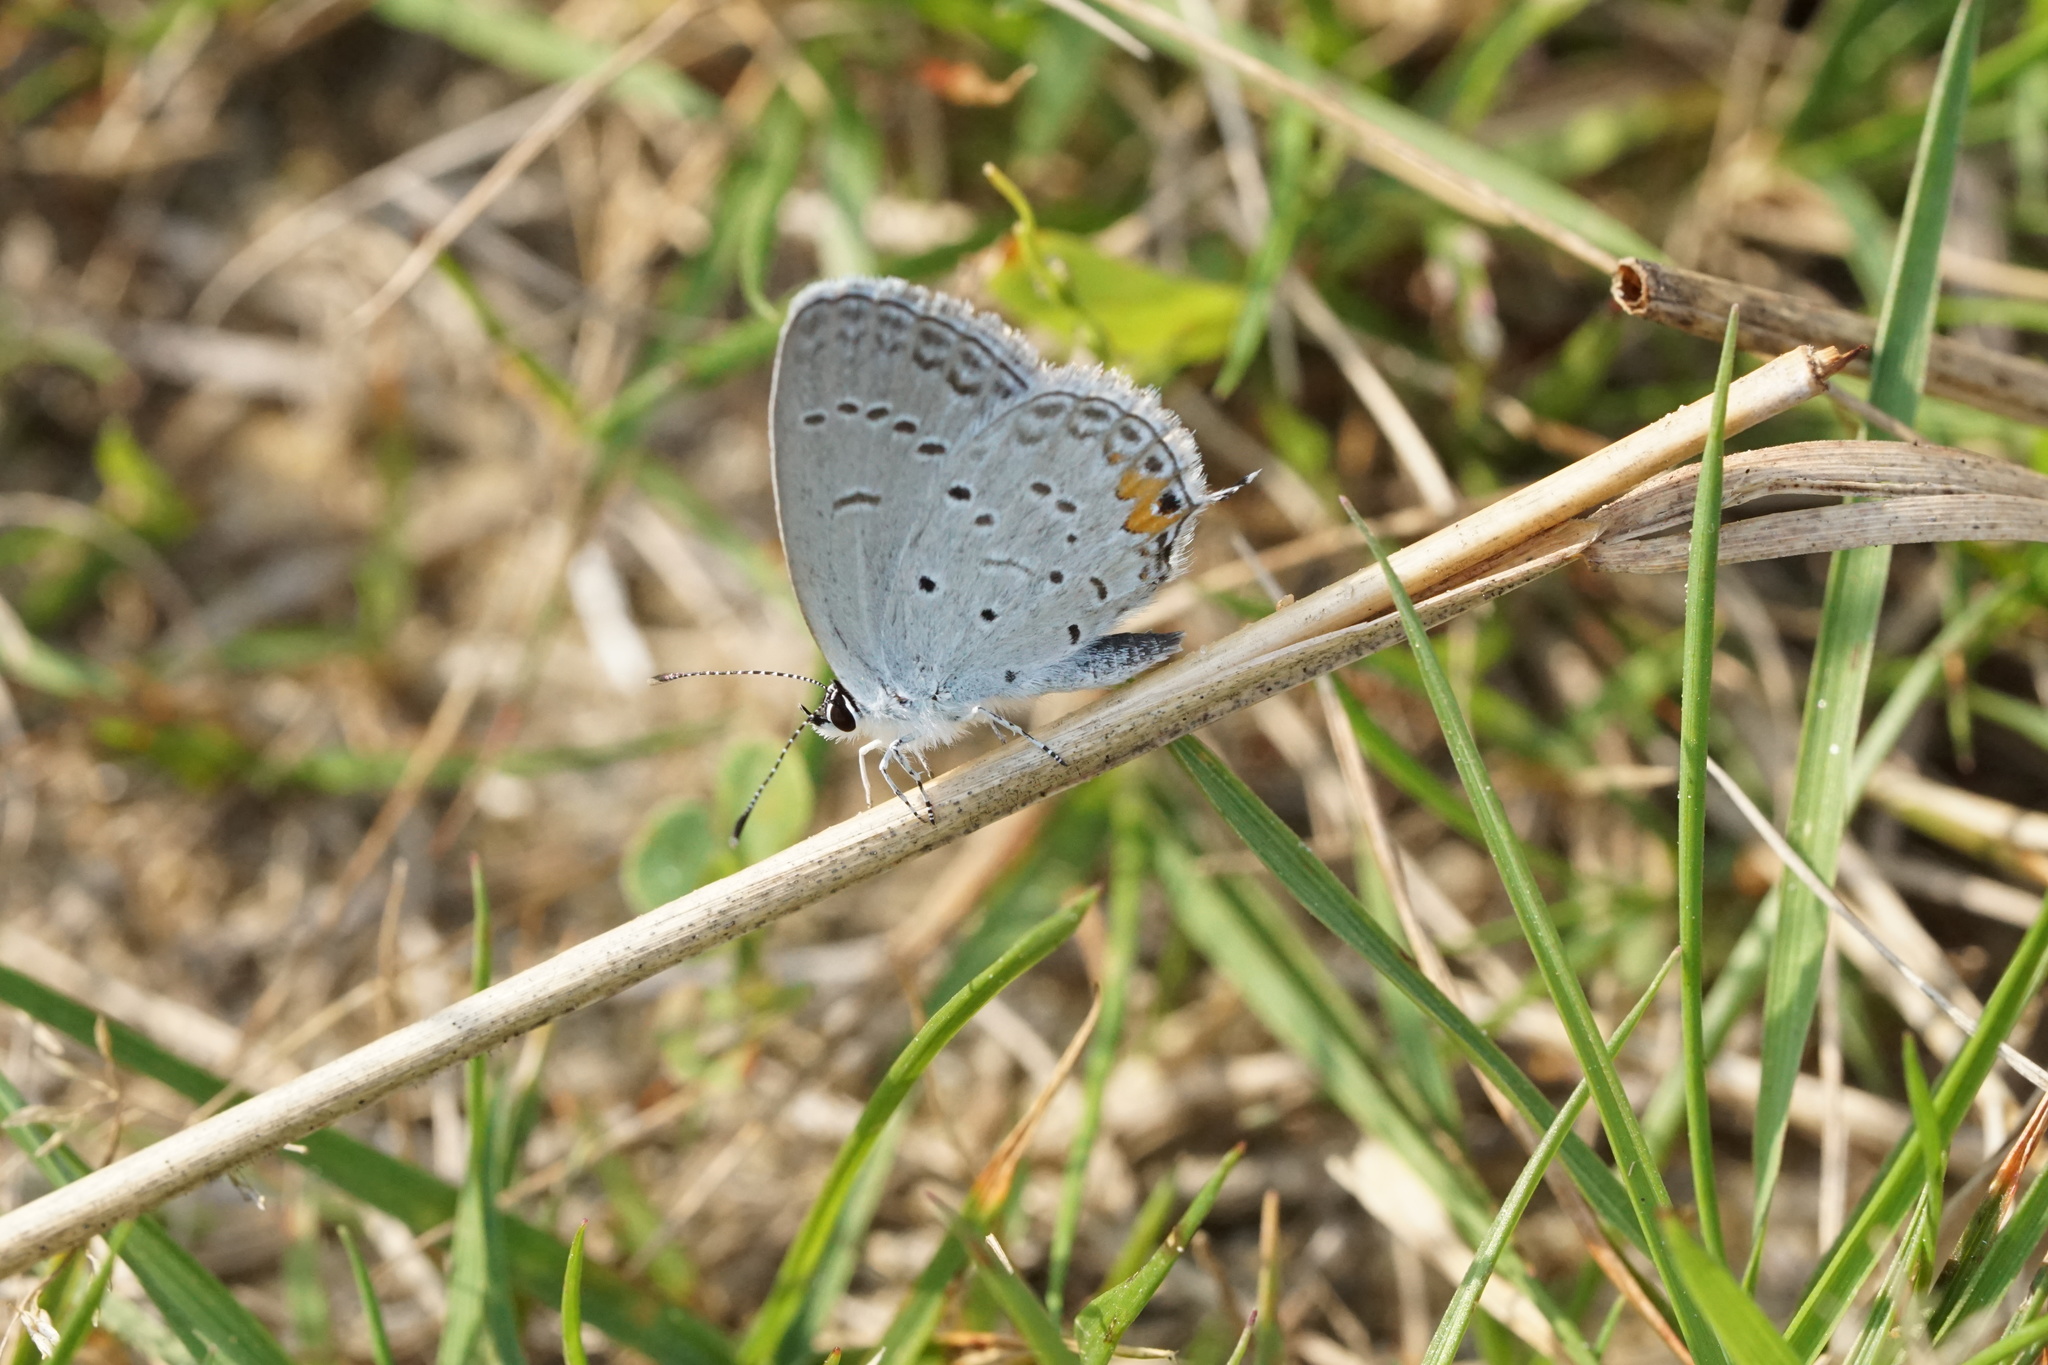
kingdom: Animalia
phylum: Arthropoda
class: Insecta
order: Lepidoptera
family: Lycaenidae
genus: Elkalyce
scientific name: Elkalyce comyntas
